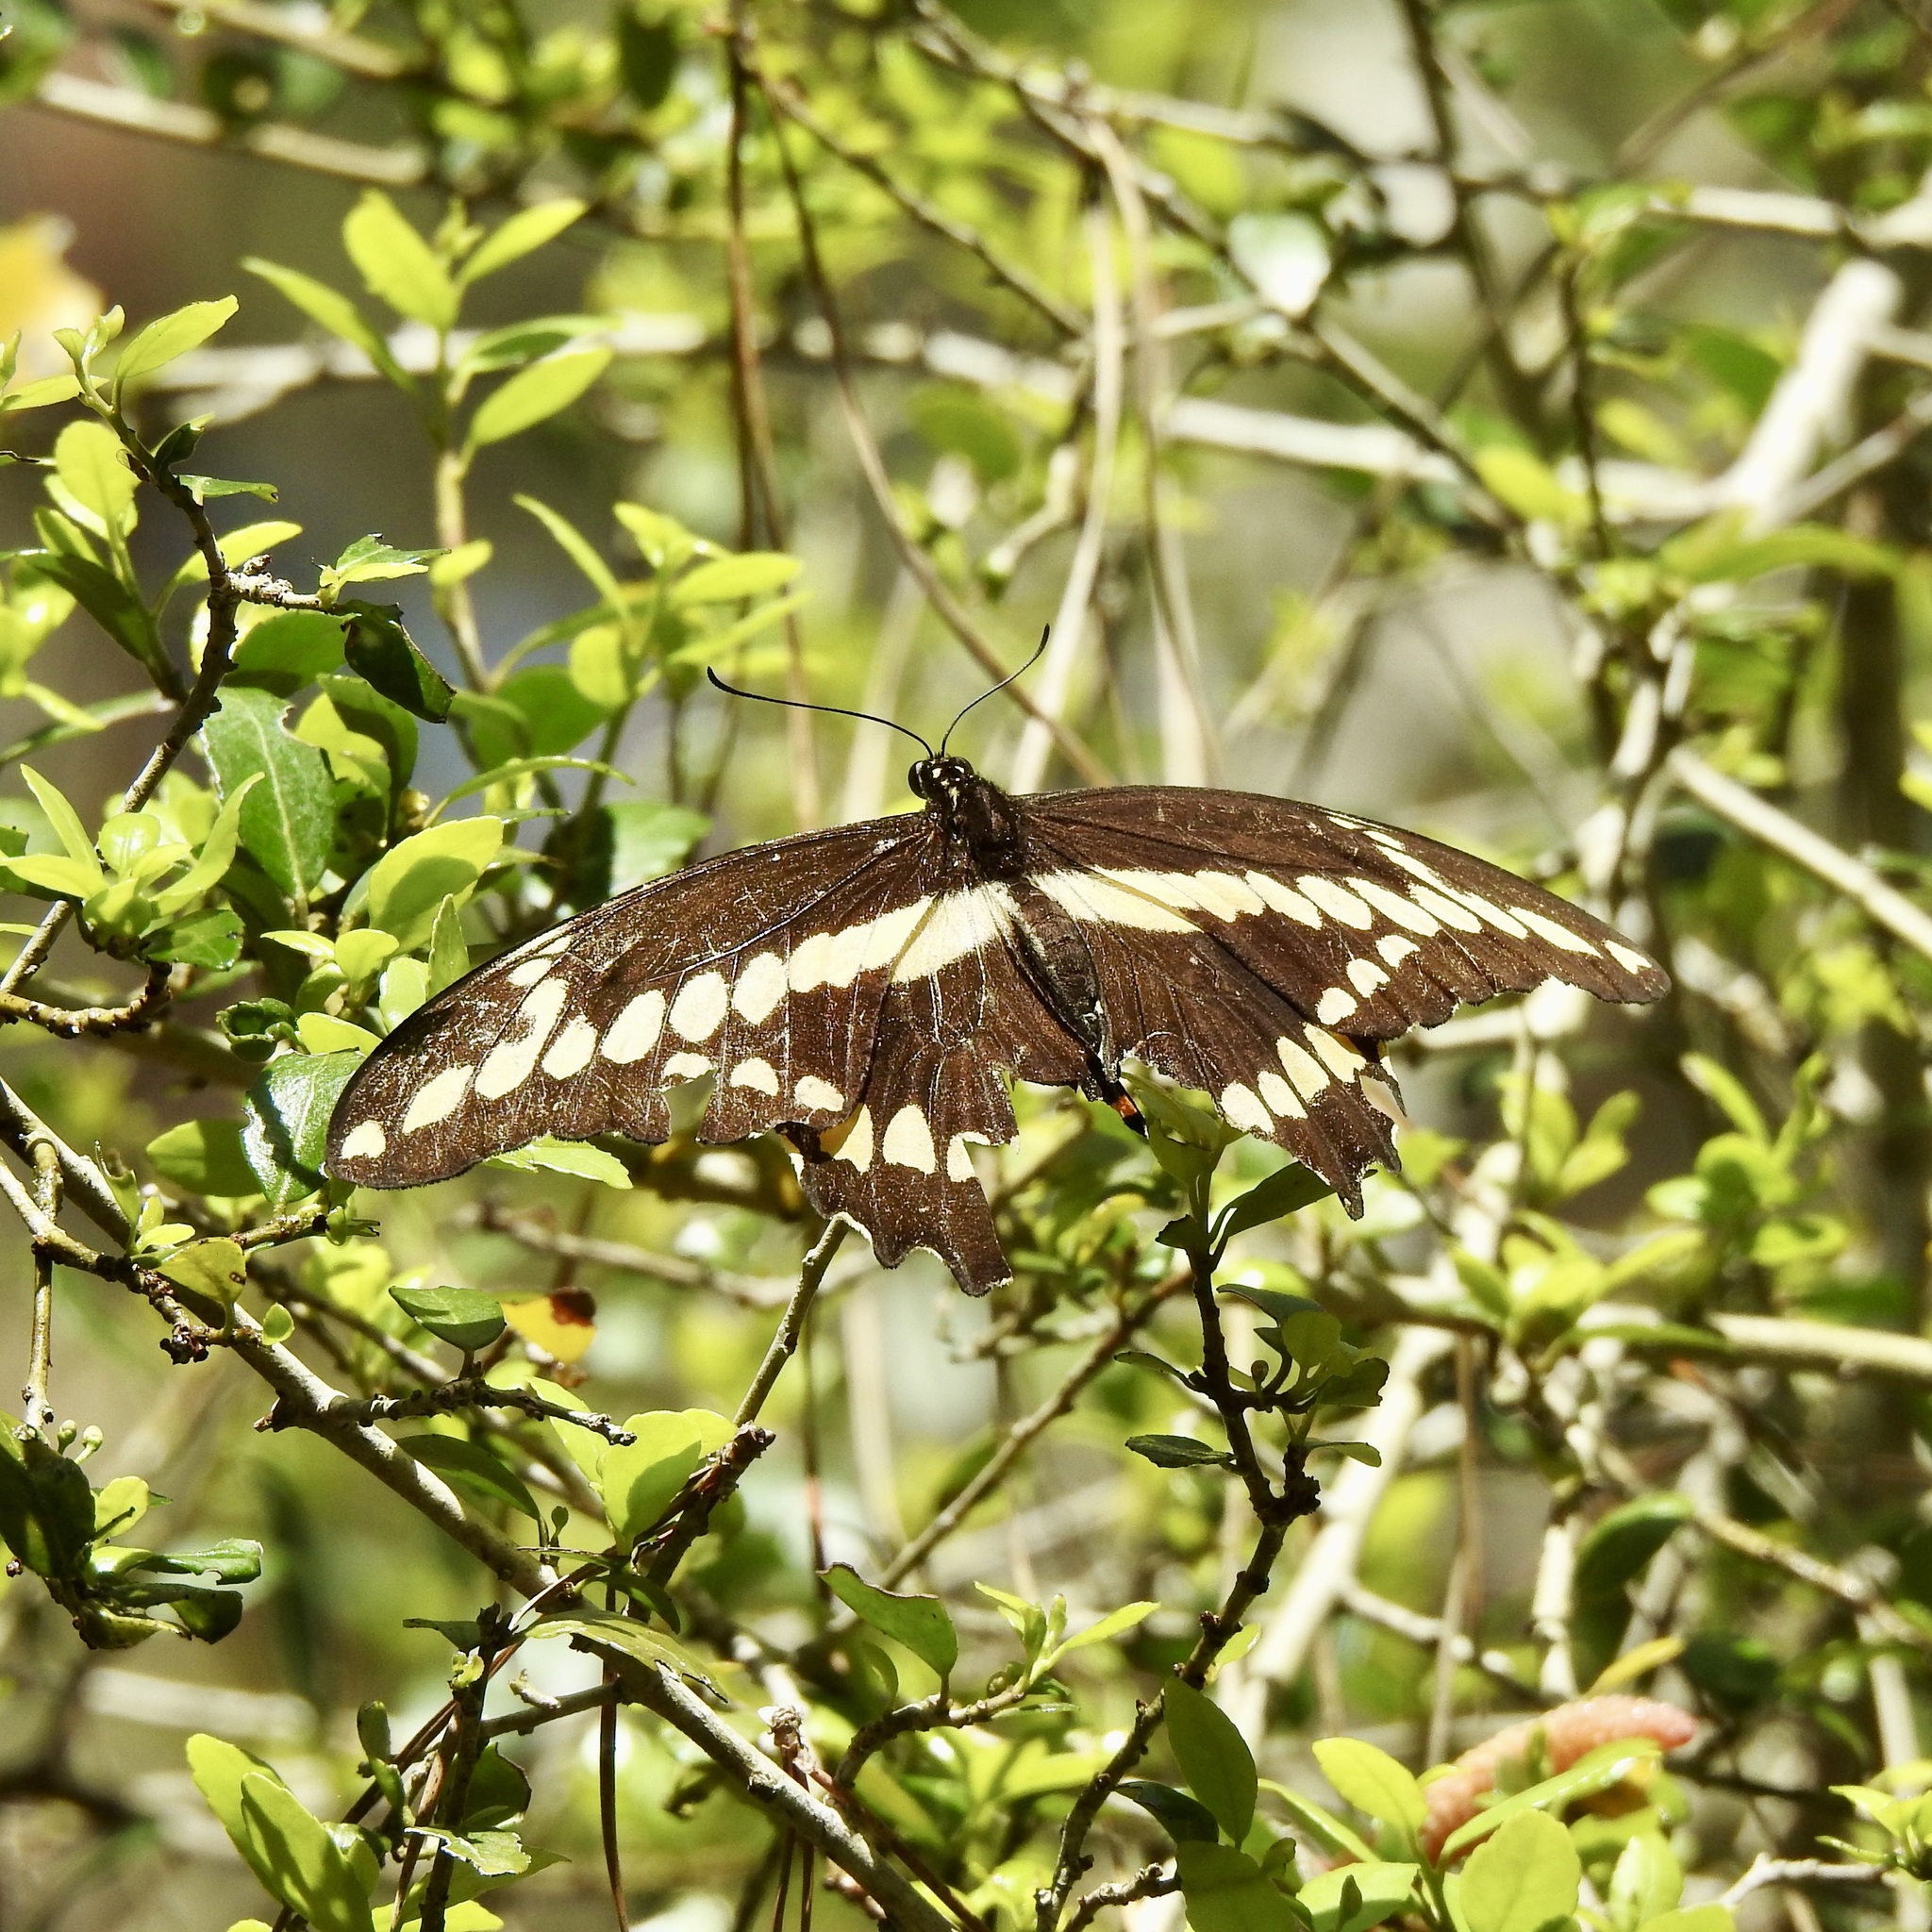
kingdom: Animalia
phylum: Arthropoda
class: Insecta
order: Lepidoptera
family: Papilionidae
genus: Papilio
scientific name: Papilio cresphontes
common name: Giant swallowtail
